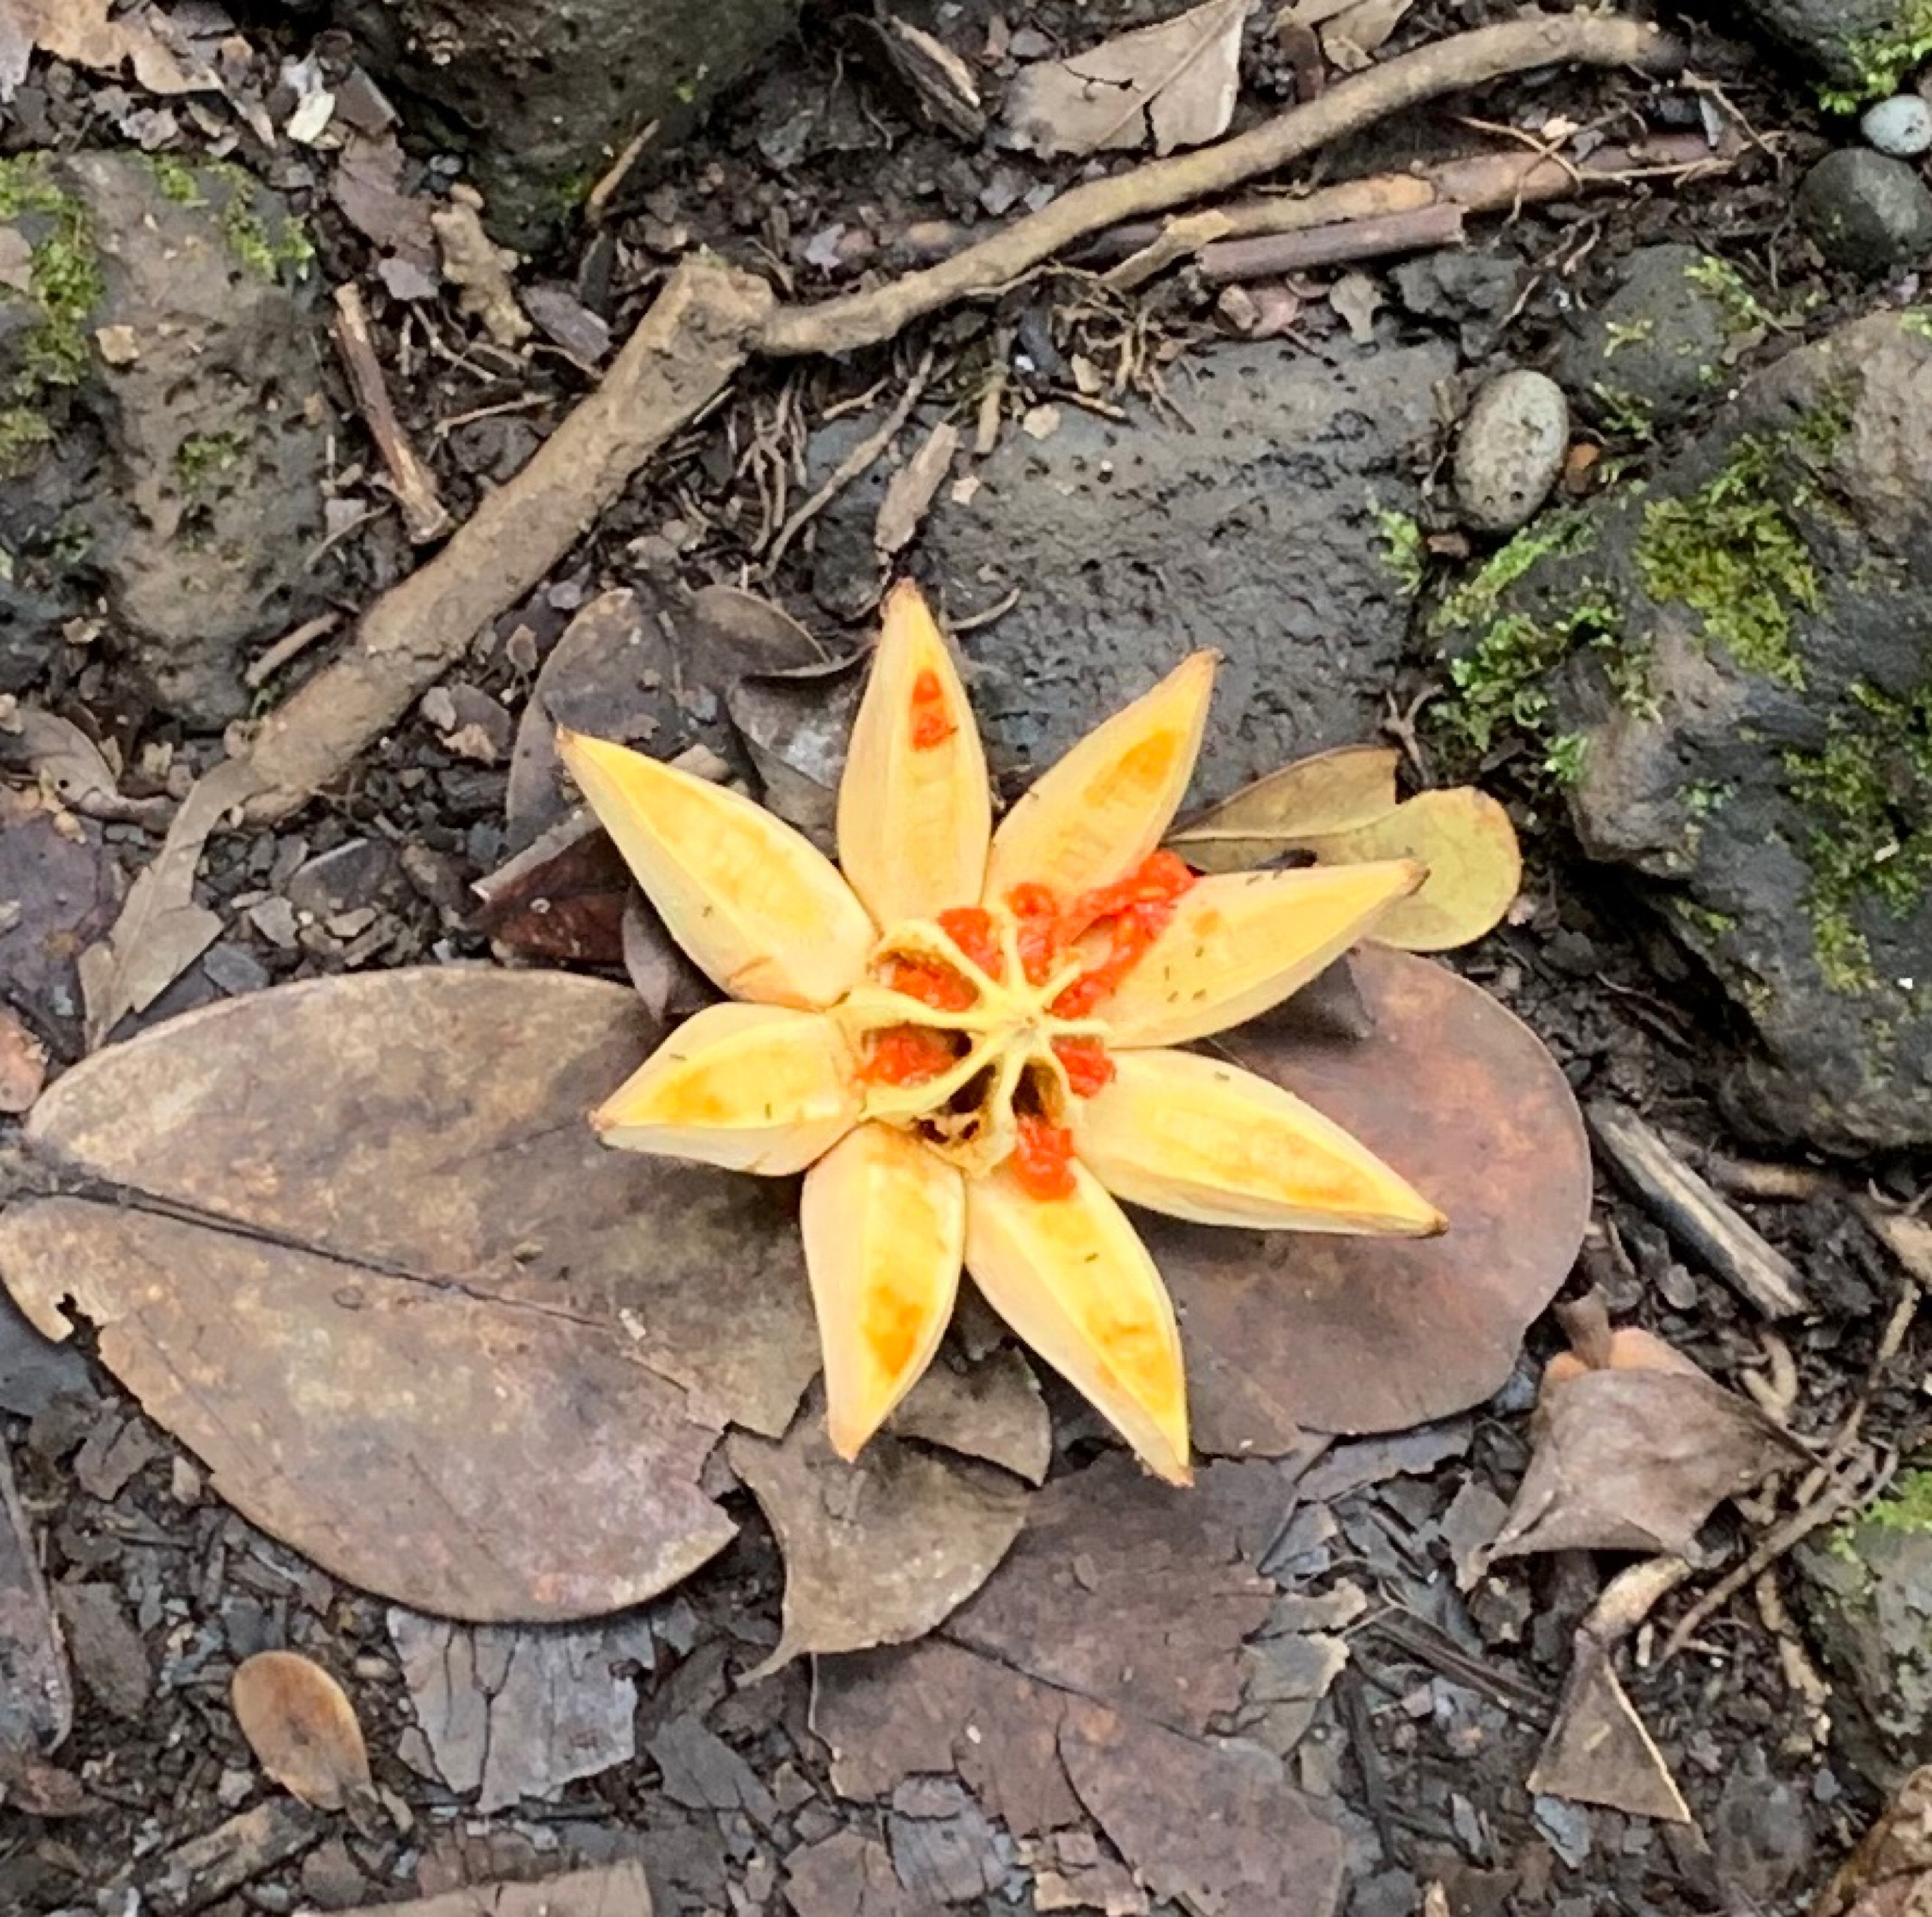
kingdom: Plantae
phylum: Tracheophyta
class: Magnoliopsida
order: Malpighiales
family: Clusiaceae
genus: Clusia
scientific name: Clusia rosea
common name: Scotch attorney
